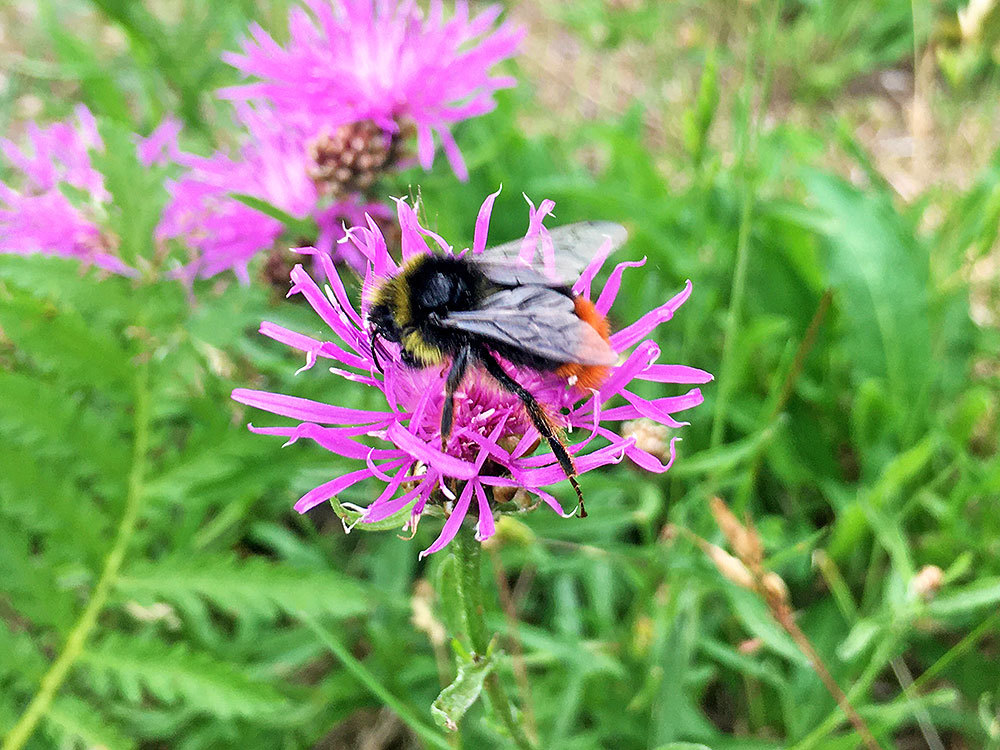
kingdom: Animalia
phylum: Arthropoda
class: Insecta
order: Hymenoptera
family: Apidae
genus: Bombus
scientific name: Bombus lapidarius
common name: Large red-tailed humble-bee
